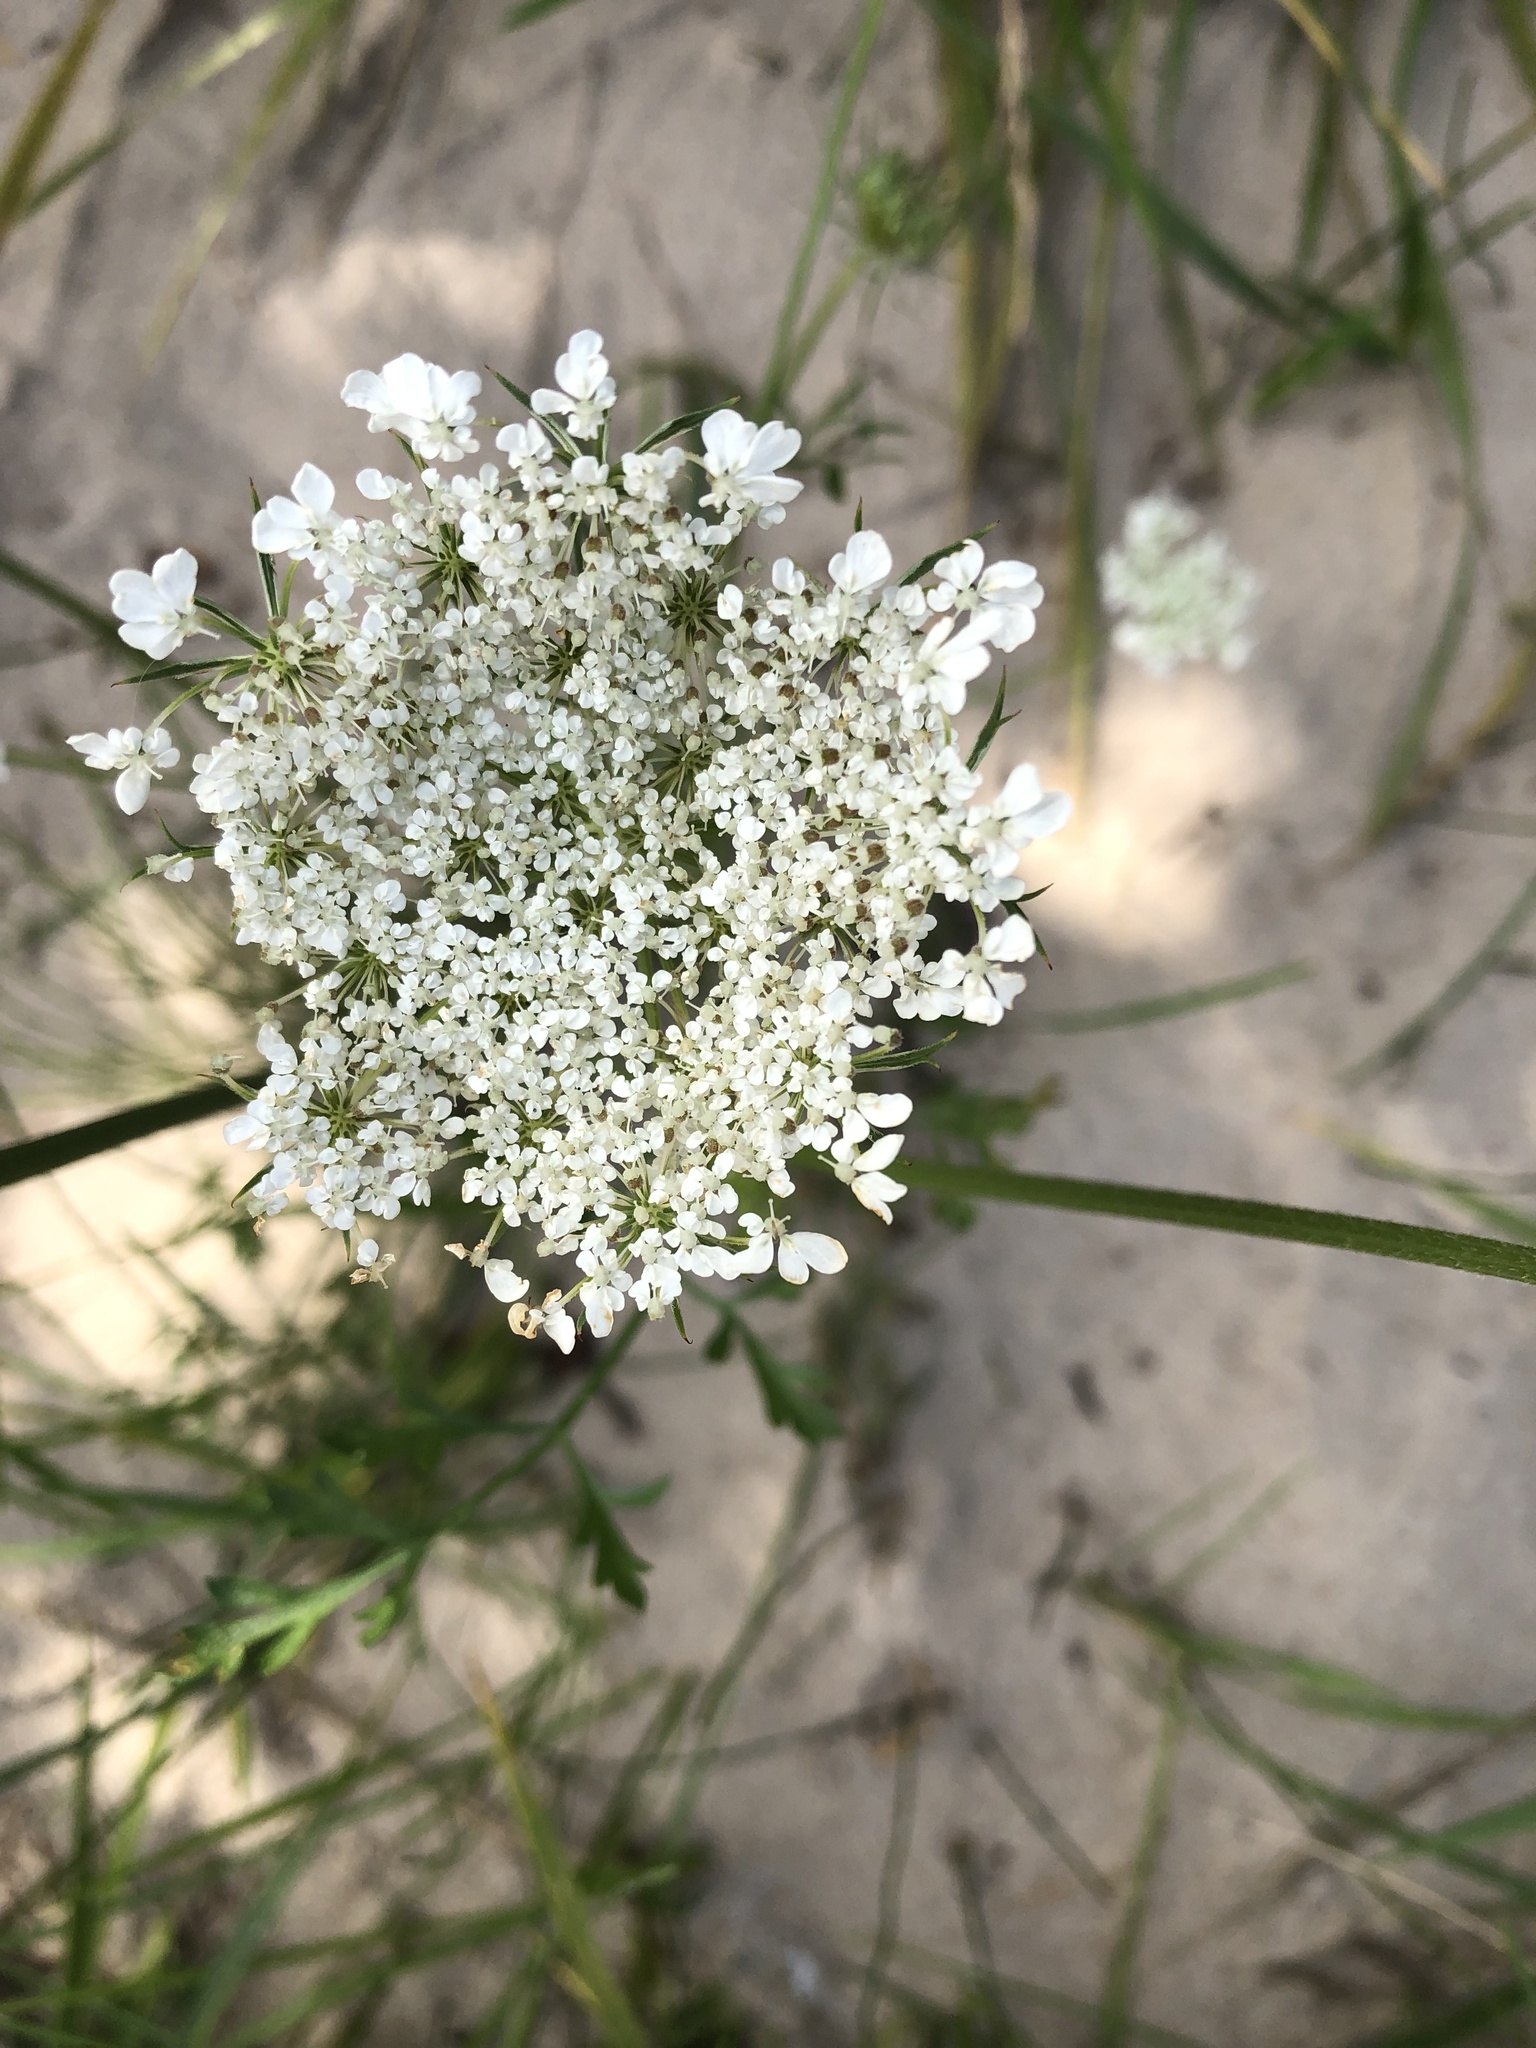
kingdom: Plantae
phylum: Tracheophyta
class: Magnoliopsida
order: Apiales
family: Apiaceae
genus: Daucus
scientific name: Daucus carota
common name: Wild carrot
